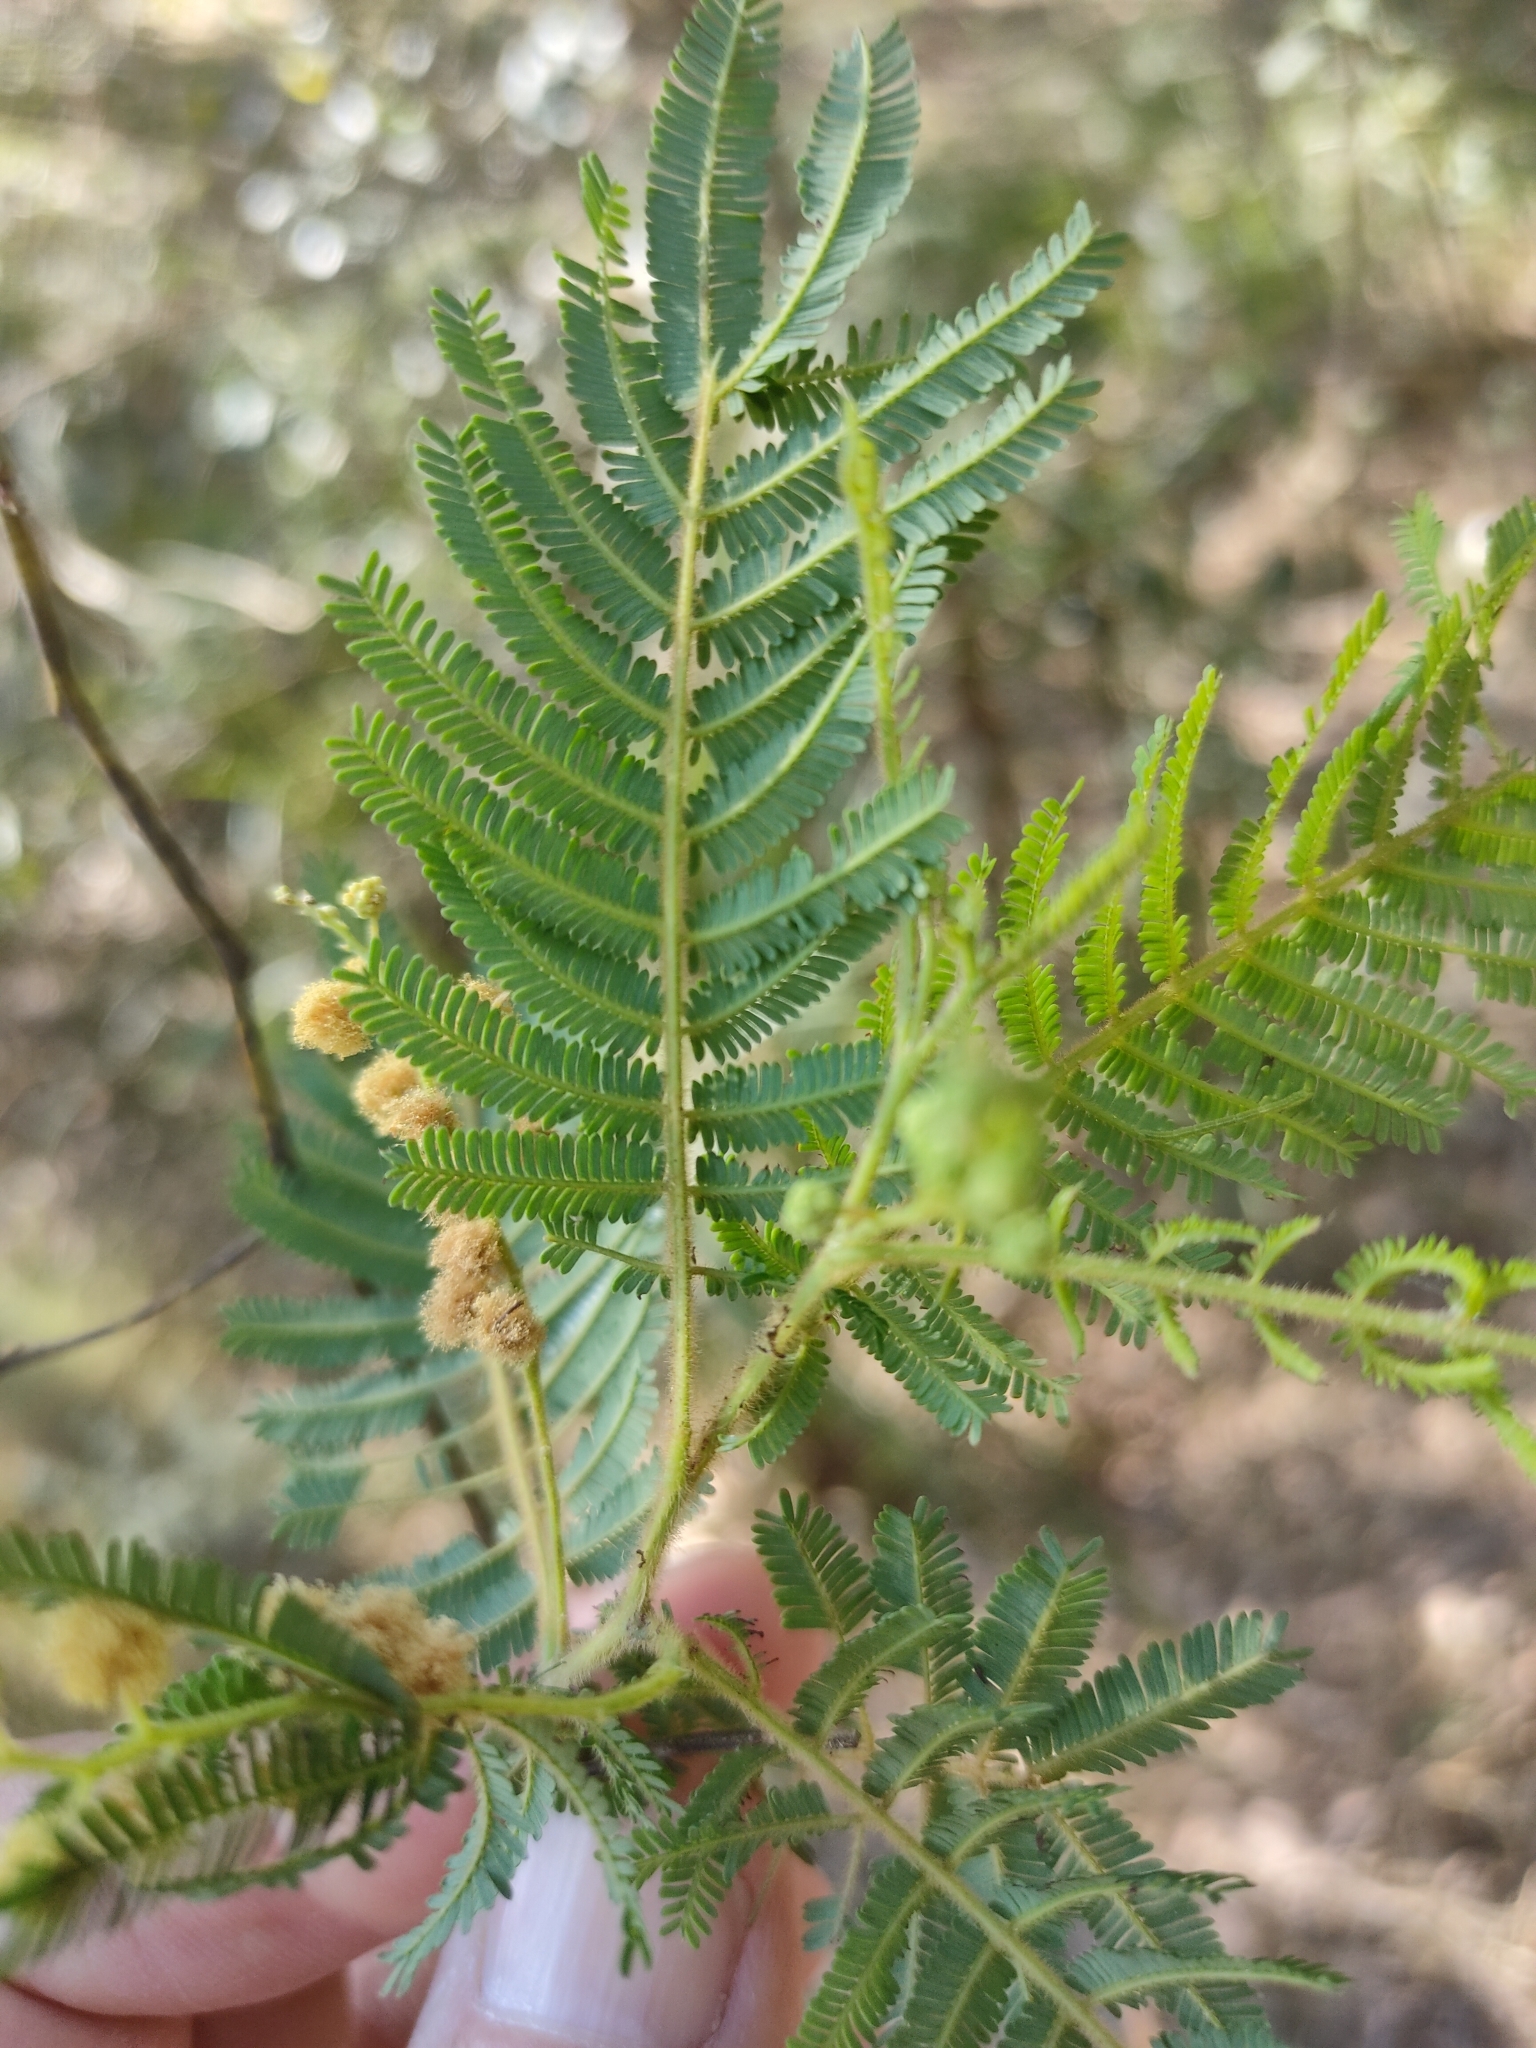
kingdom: Plantae
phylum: Tracheophyta
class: Magnoliopsida
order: Fabales
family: Fabaceae
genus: Acacia
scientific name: Acacia oshanesii
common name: Corkwood wattle
